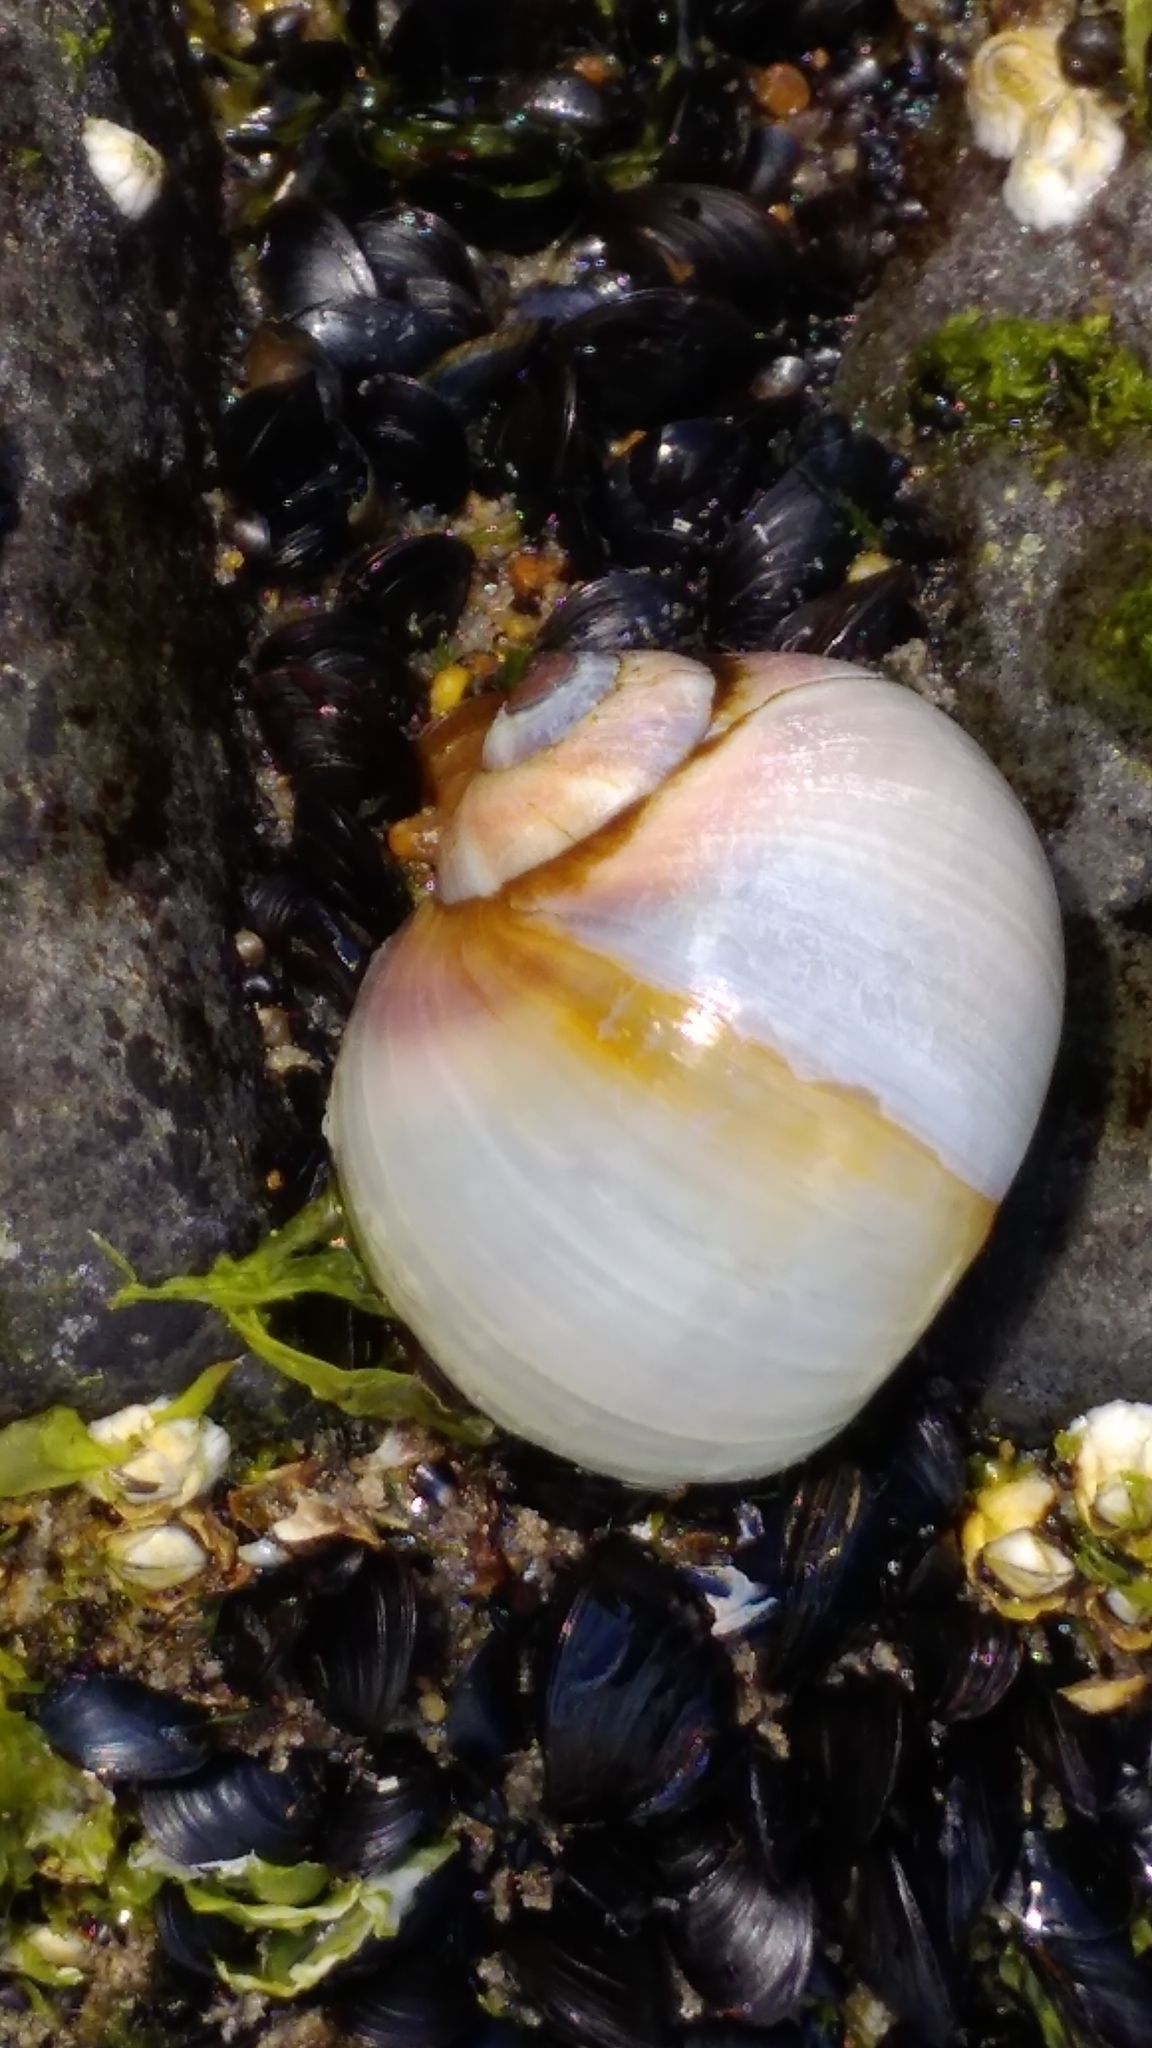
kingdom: Animalia
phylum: Mollusca
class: Gastropoda
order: Littorinimorpha
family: Naticidae
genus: Euspira
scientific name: Euspira heros
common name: Common northern moonsnail
